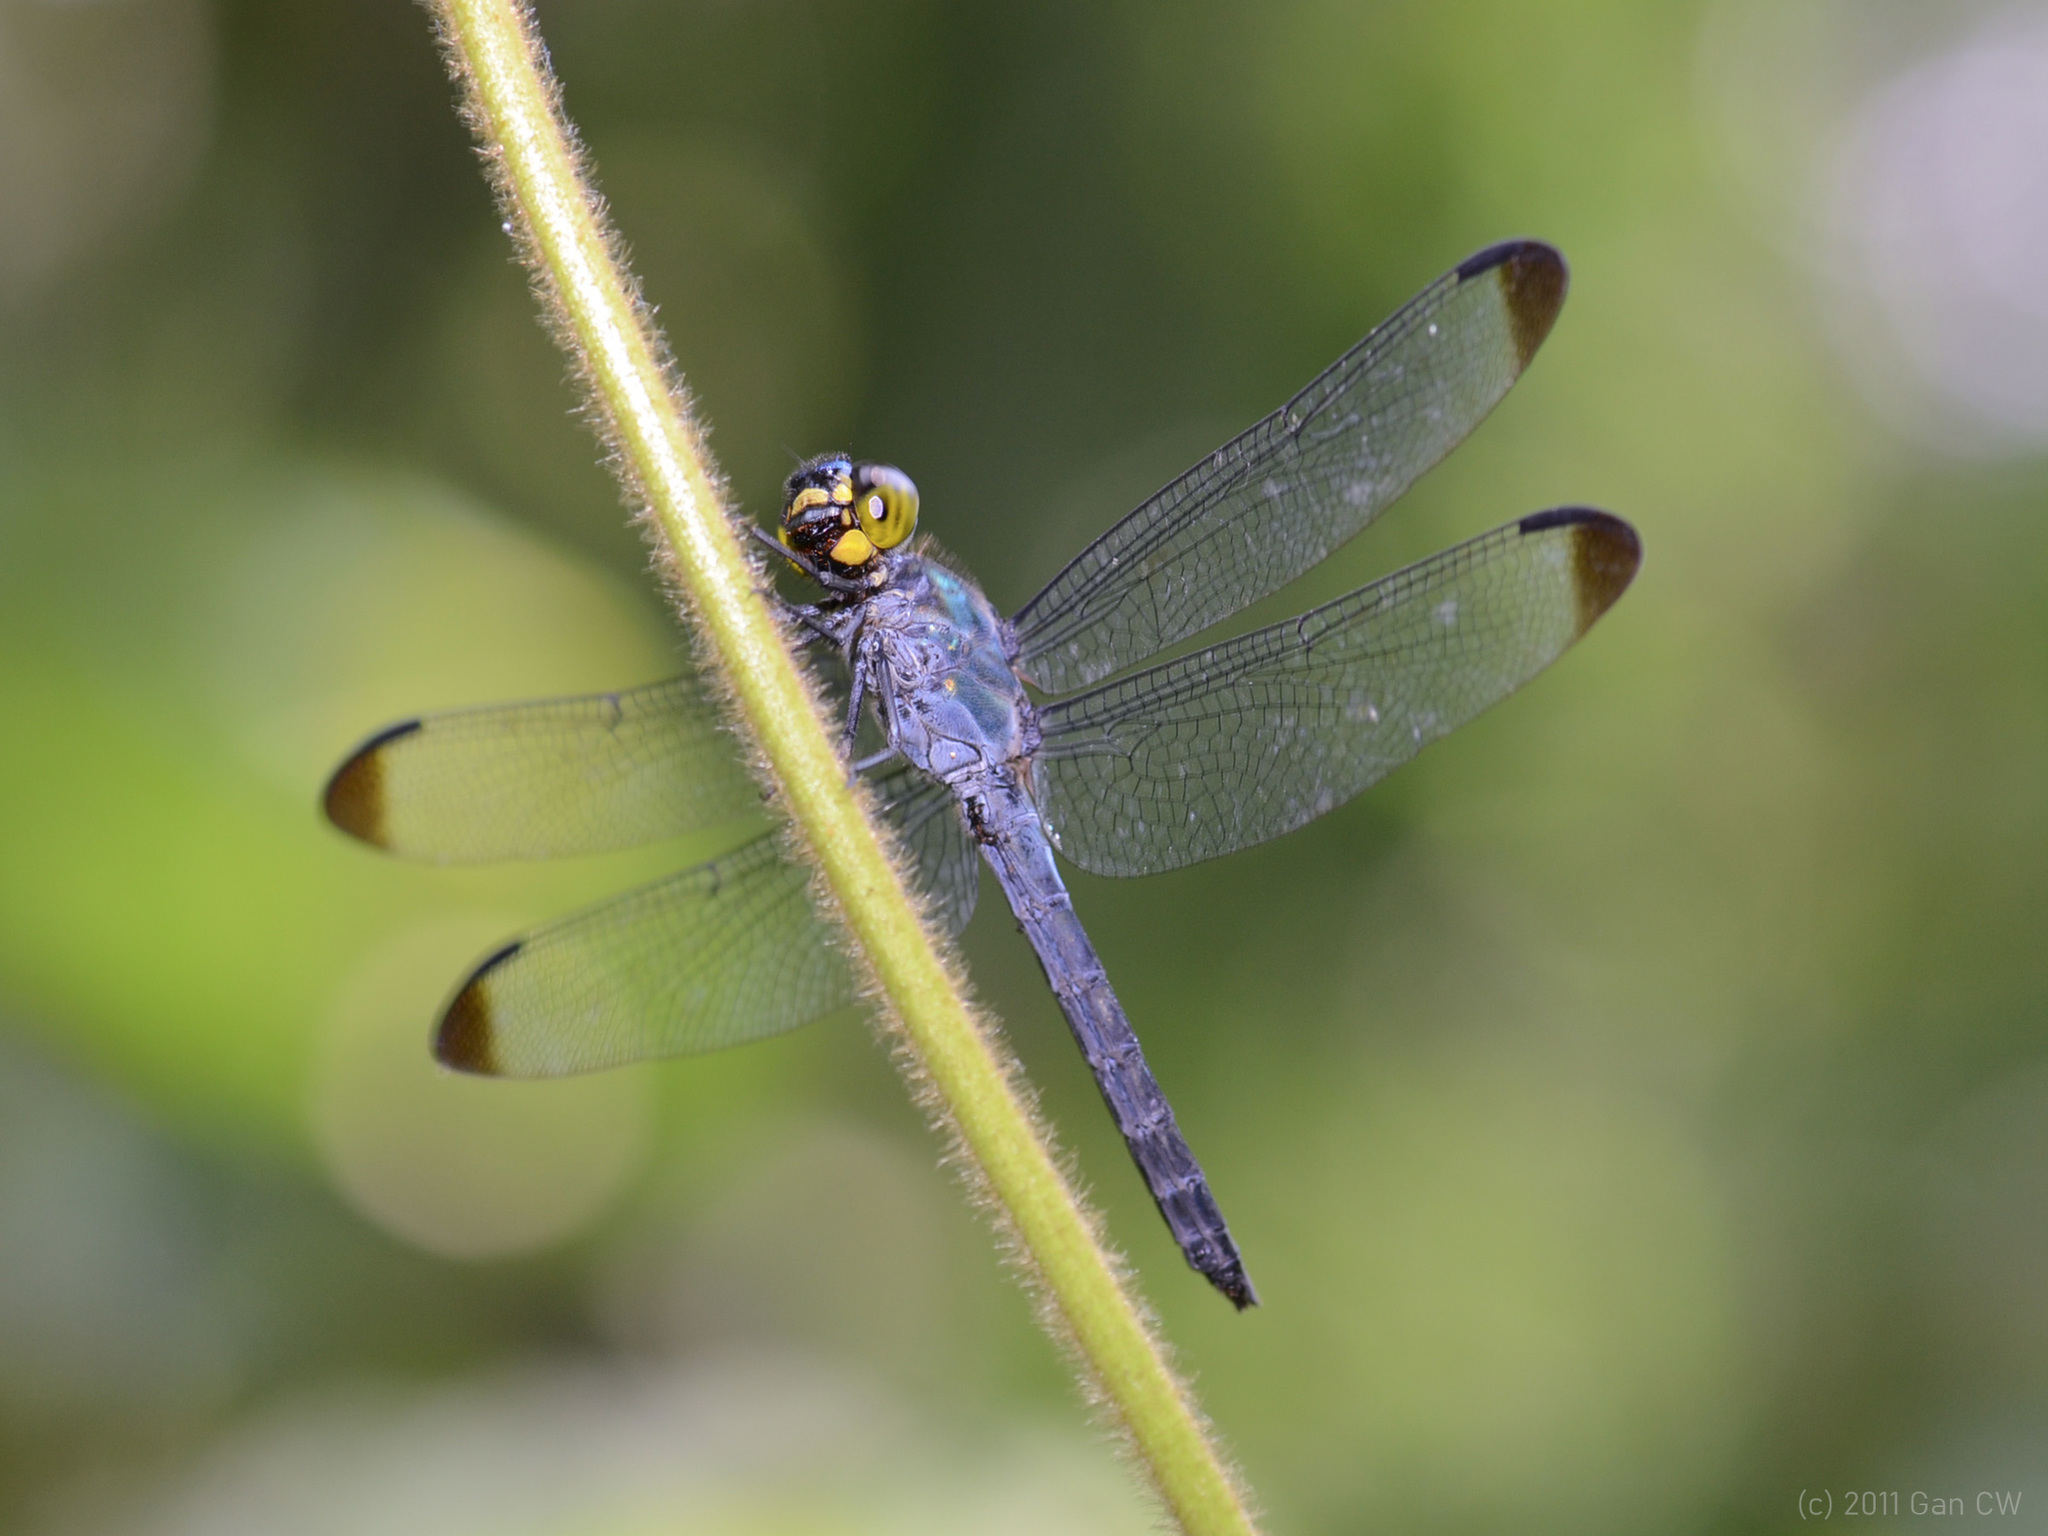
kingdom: Animalia
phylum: Arthropoda
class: Insecta
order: Odonata
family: Libellulidae
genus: Cratilla
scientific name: Cratilla metallica
